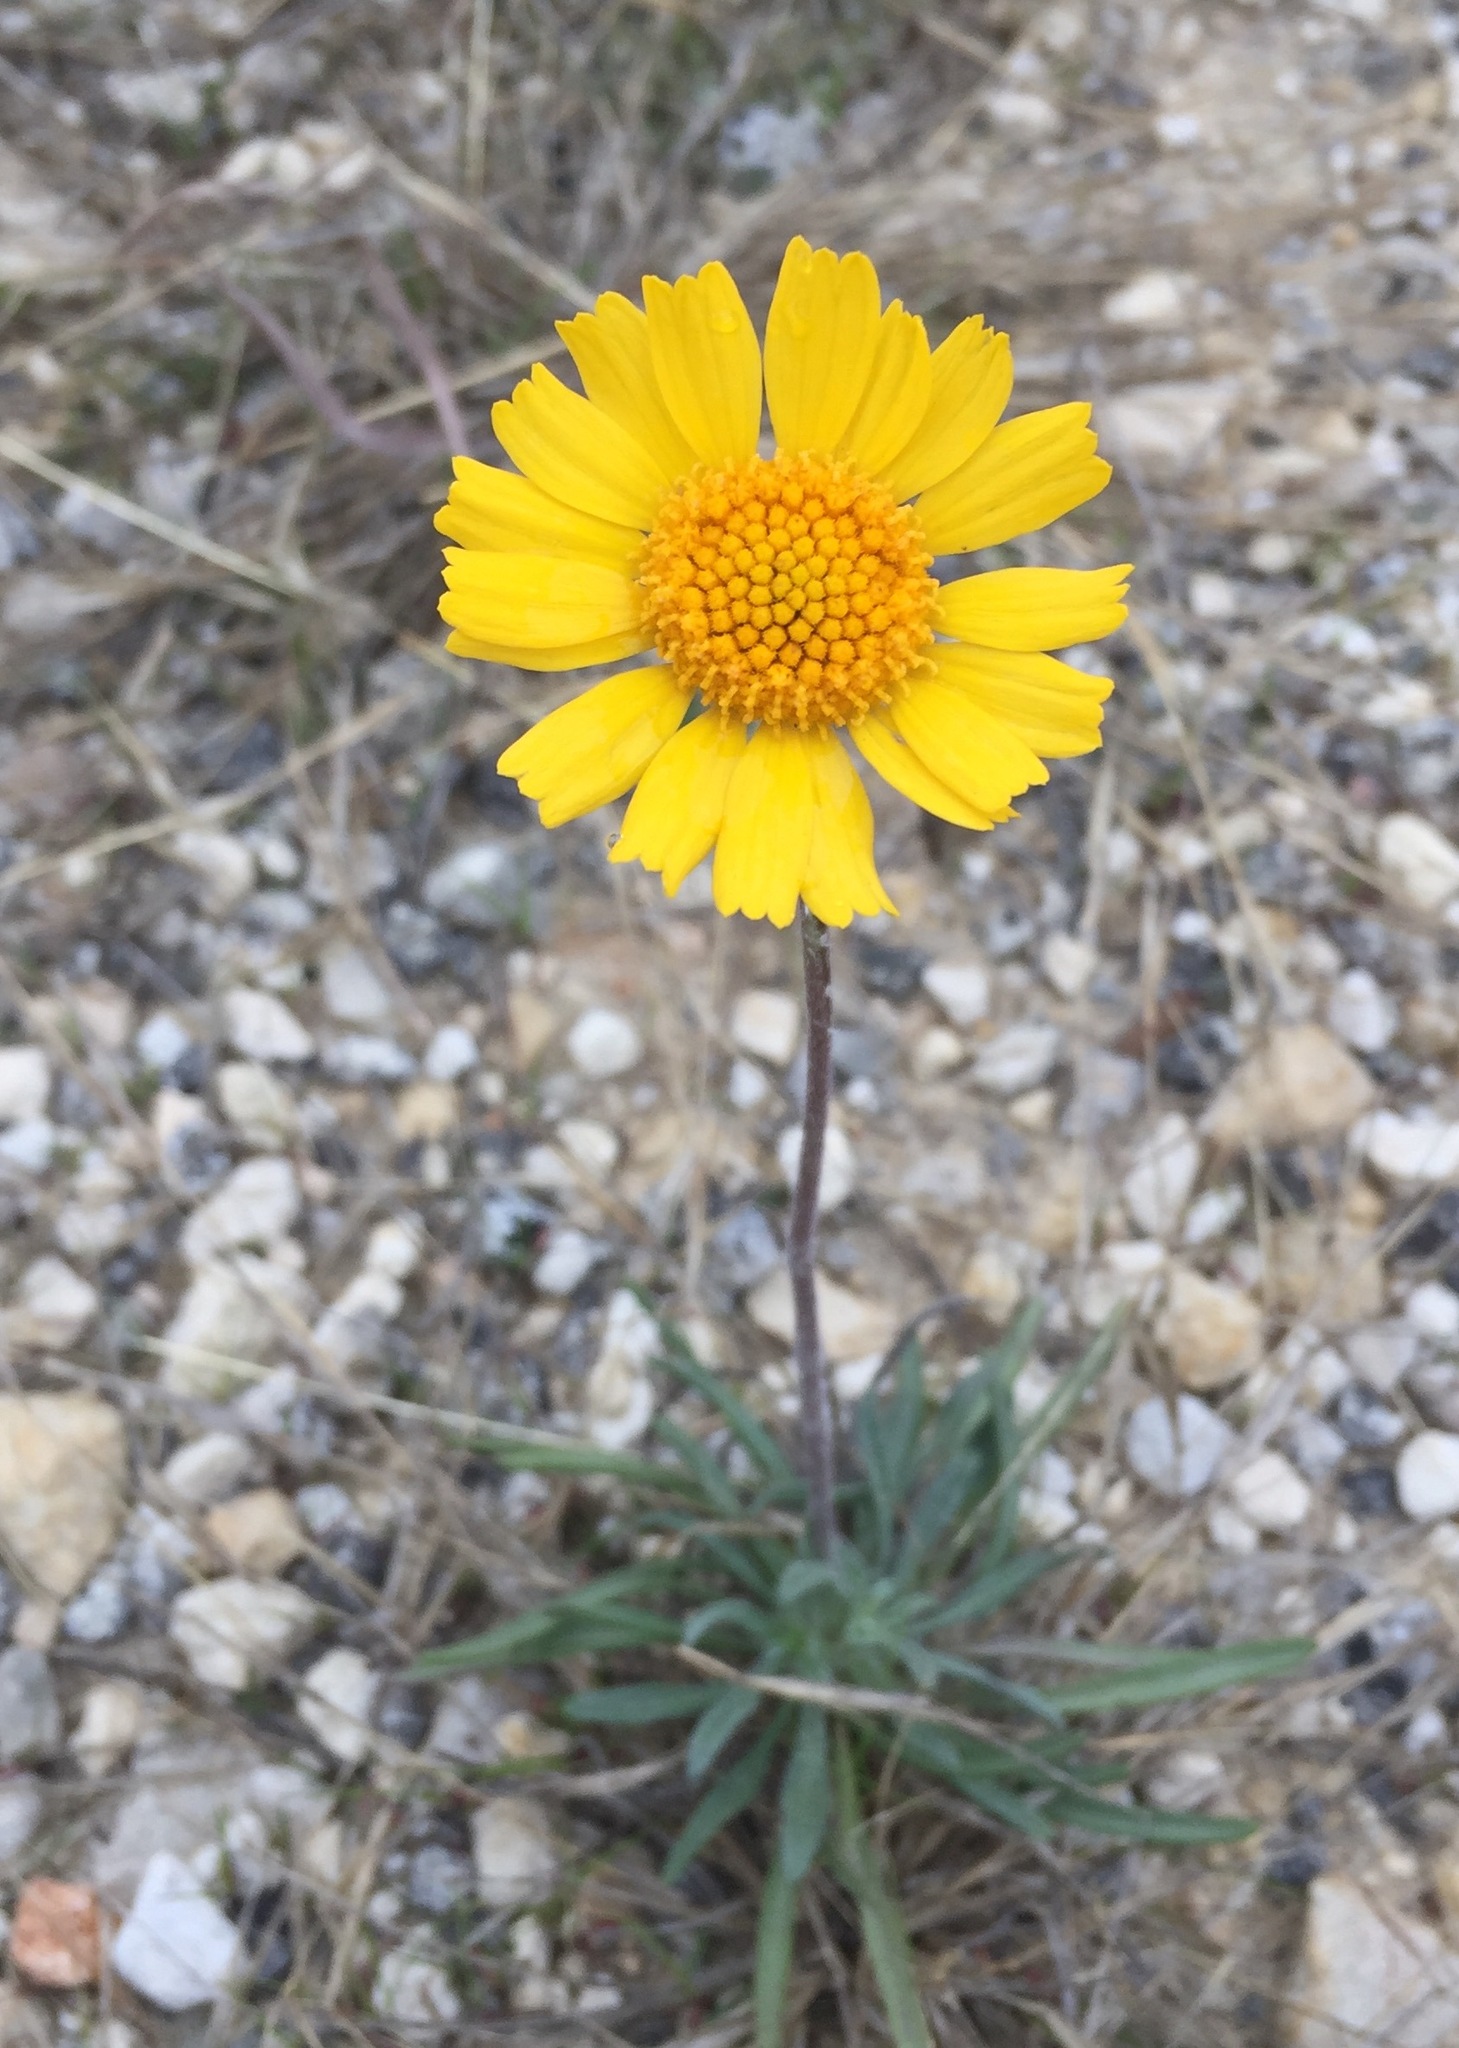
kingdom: Plantae
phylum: Tracheophyta
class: Magnoliopsida
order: Asterales
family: Asteraceae
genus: Tetraneuris
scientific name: Tetraneuris scaposa
